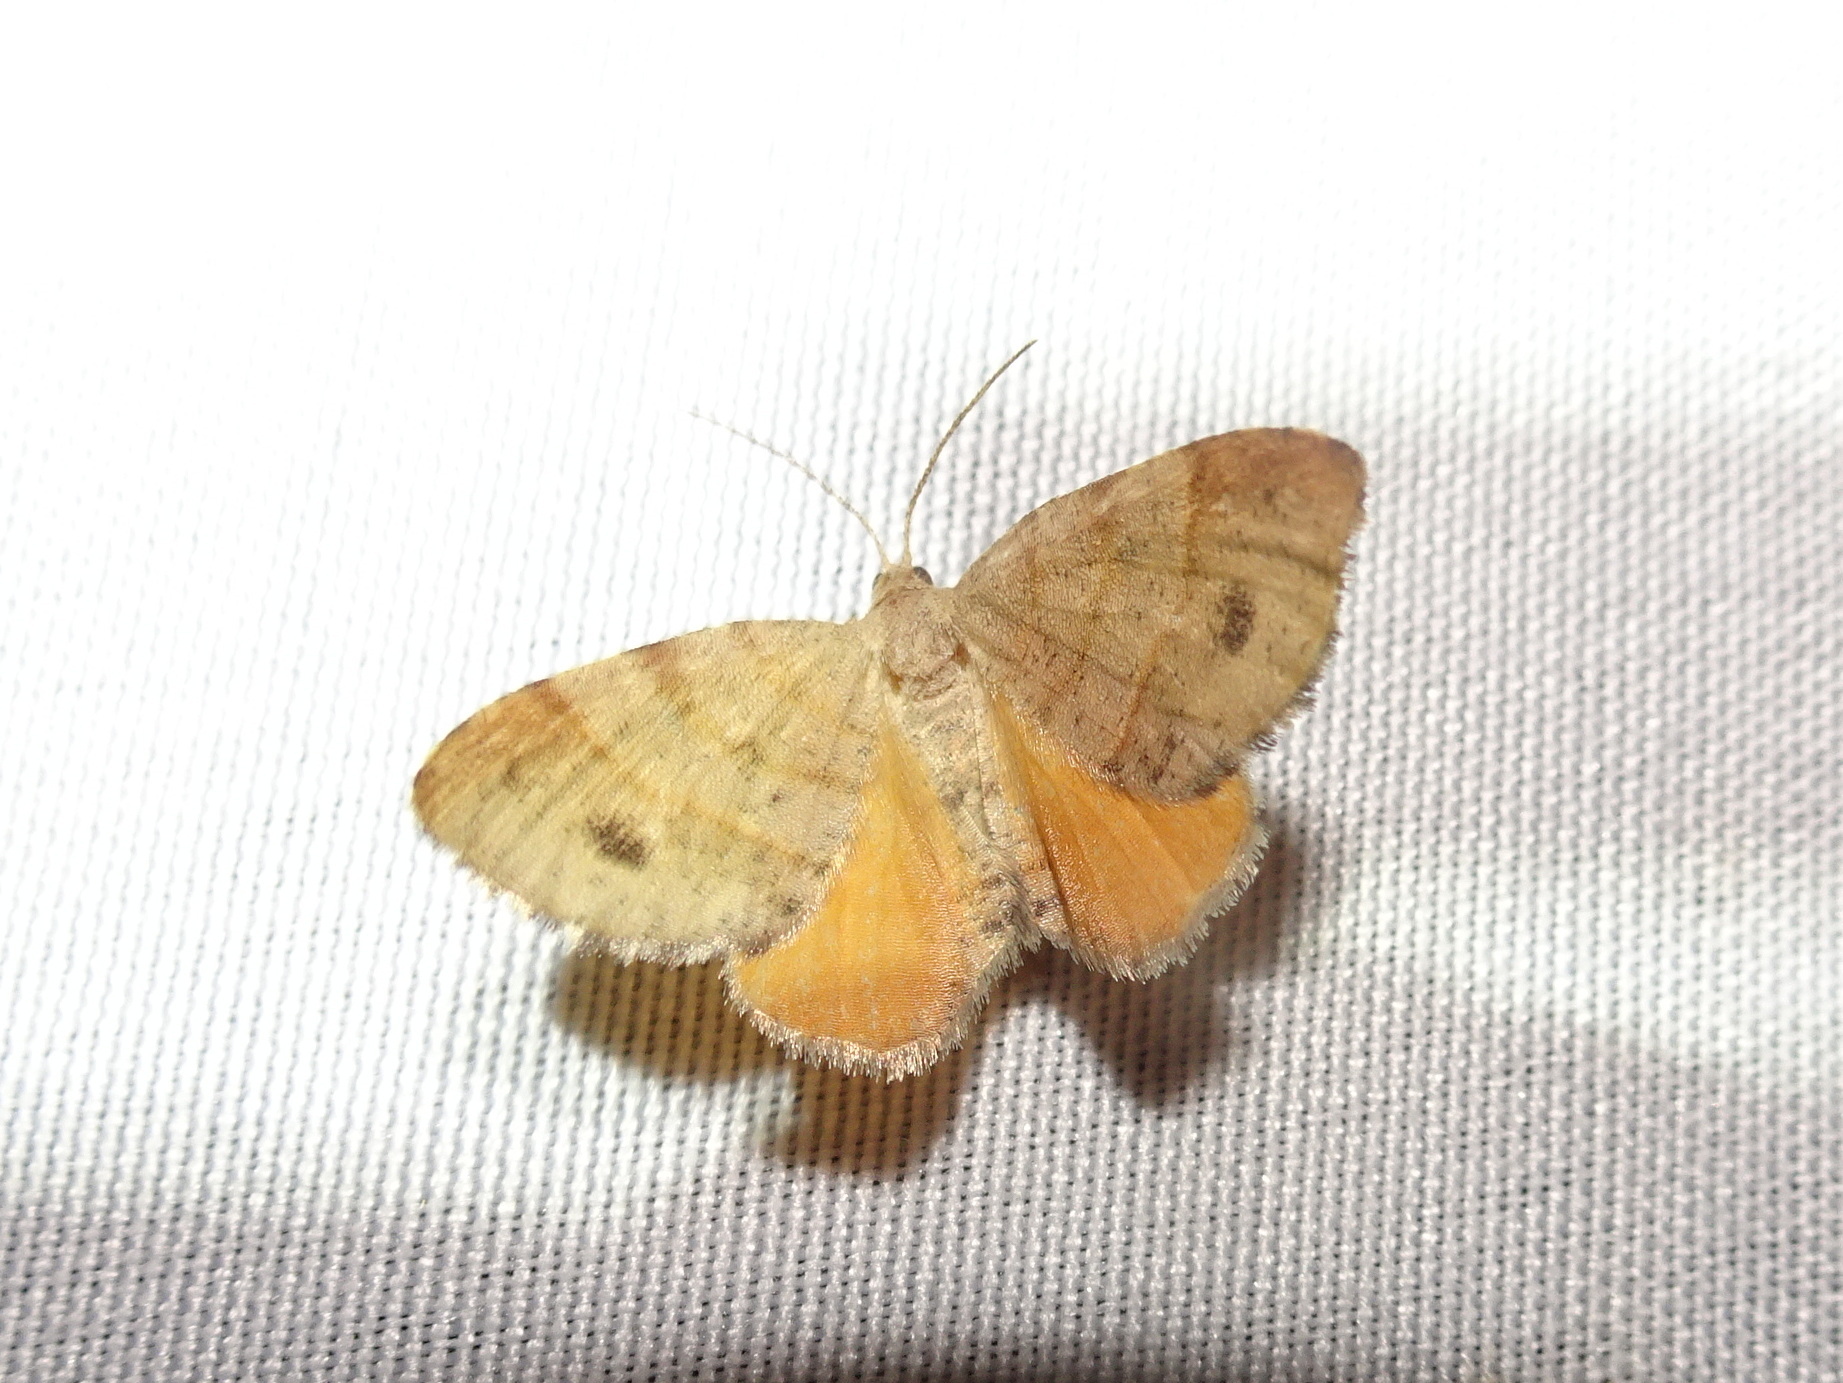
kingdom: Animalia
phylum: Arthropoda
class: Insecta
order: Lepidoptera
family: Geometridae
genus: Mellilla
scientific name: Mellilla xanthometata
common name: Orange wing moth
